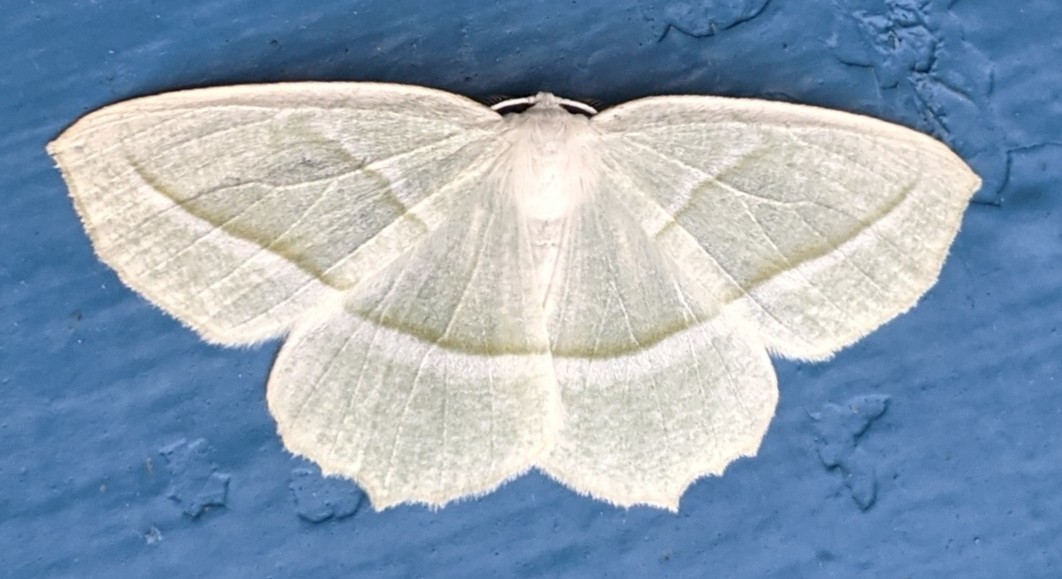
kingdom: Animalia
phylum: Arthropoda
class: Insecta
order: Lepidoptera
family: Geometridae
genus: Campaea
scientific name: Campaea perlata
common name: Fringed looper
